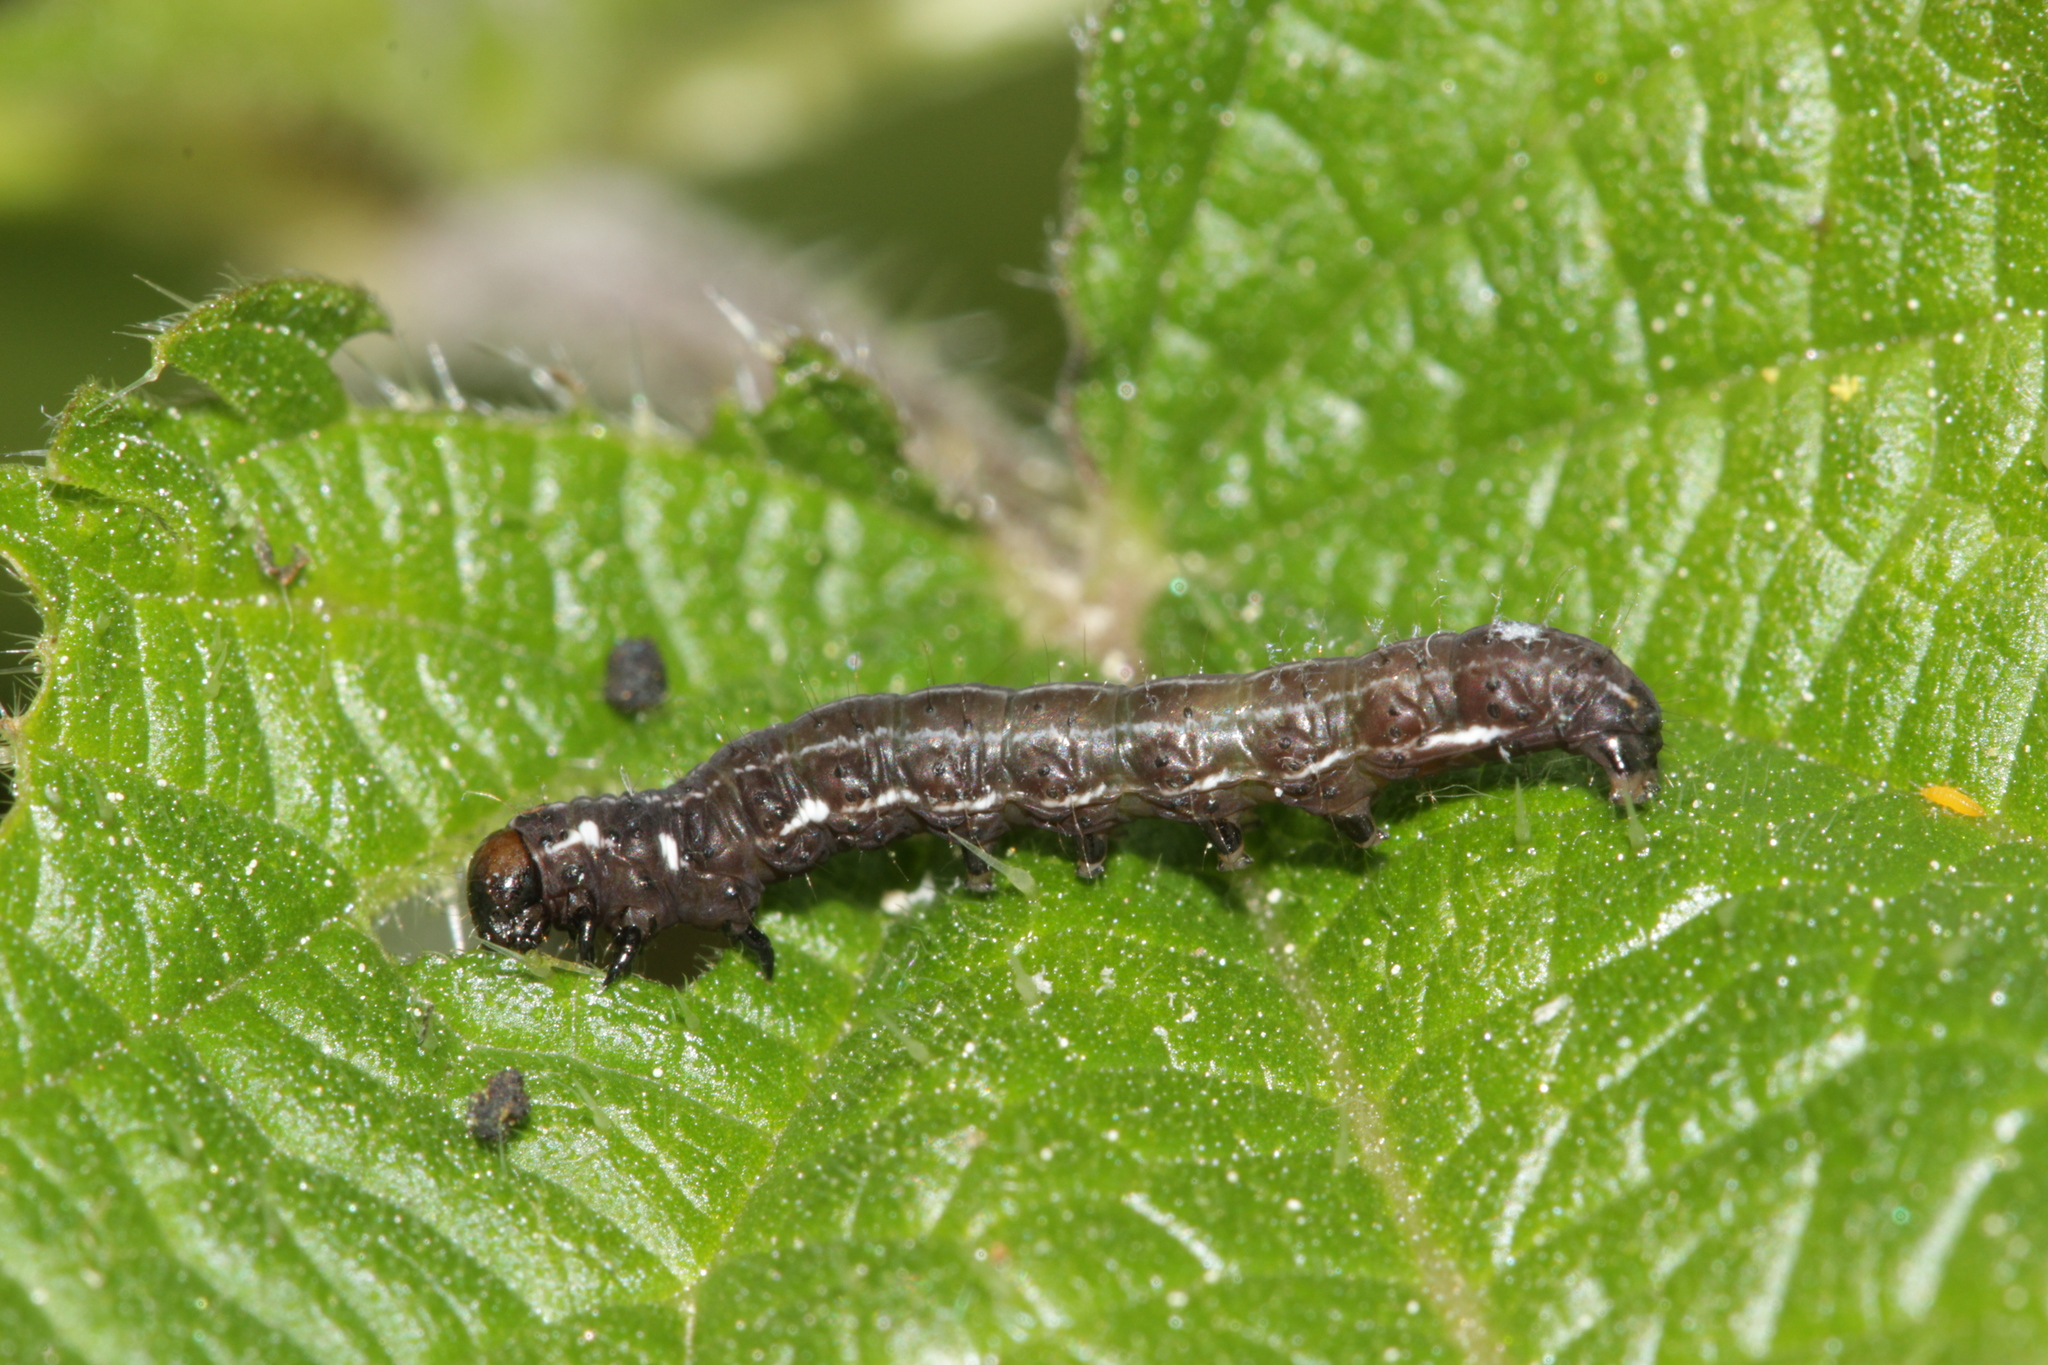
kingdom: Animalia
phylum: Arthropoda
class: Insecta
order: Lepidoptera
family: Noctuidae
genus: Eupsilia
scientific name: Eupsilia transversa
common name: Satellite
